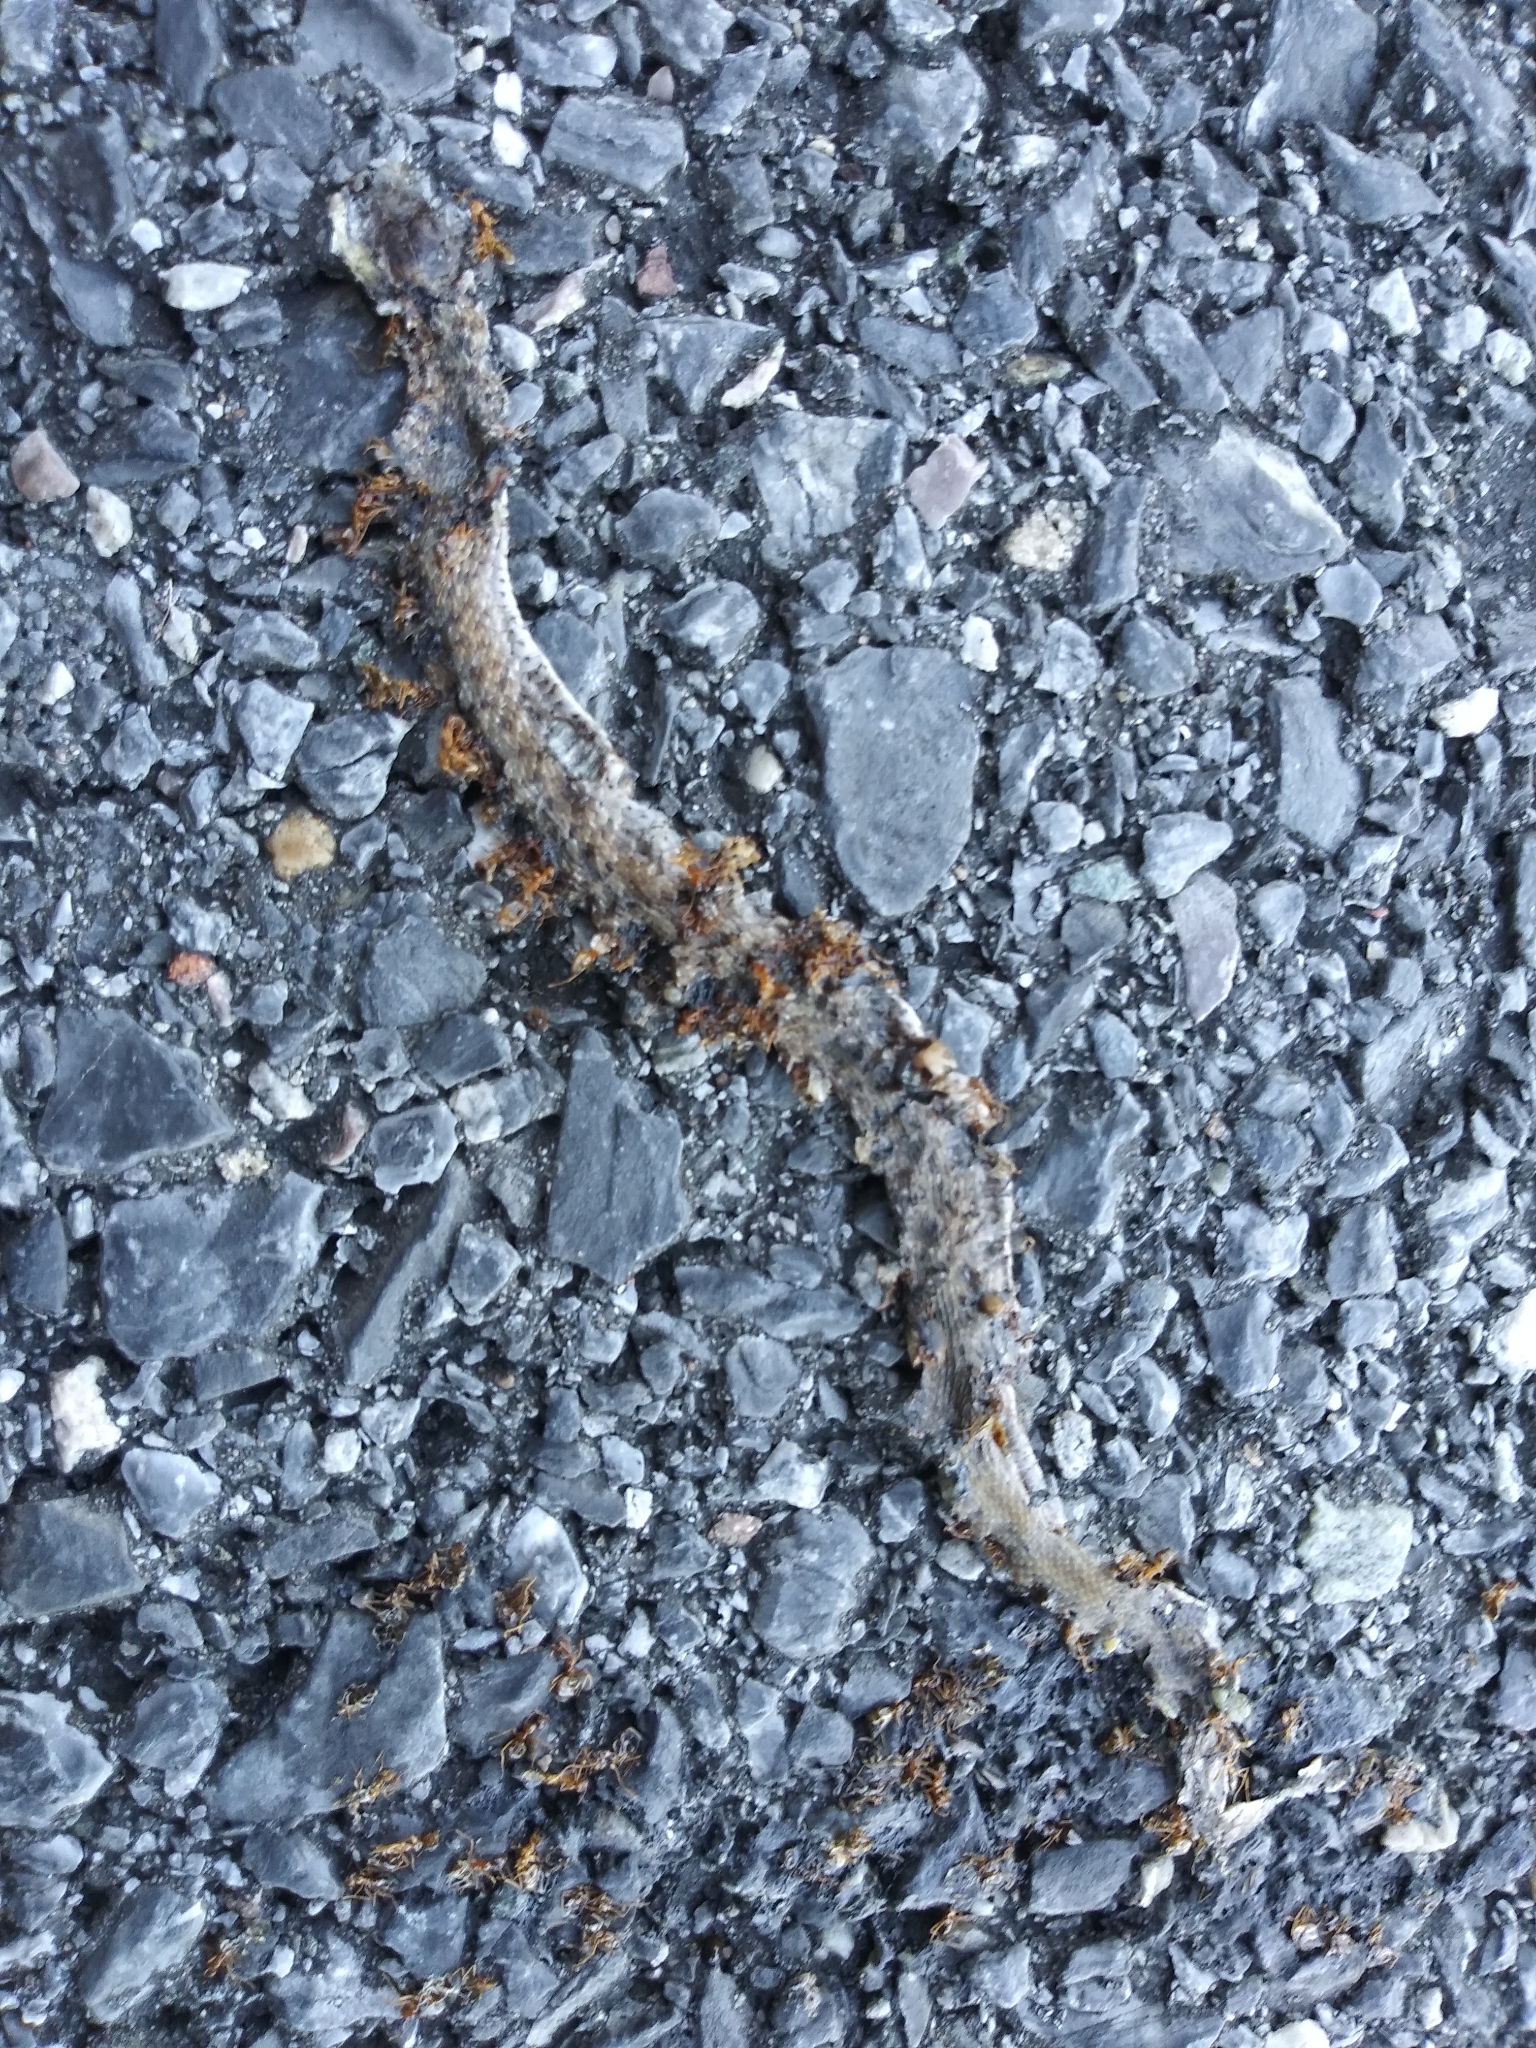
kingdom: Animalia
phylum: Chordata
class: Squamata
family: Colubridae
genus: Storeria
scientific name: Storeria dekayi
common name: (dekay’s) brown snake
